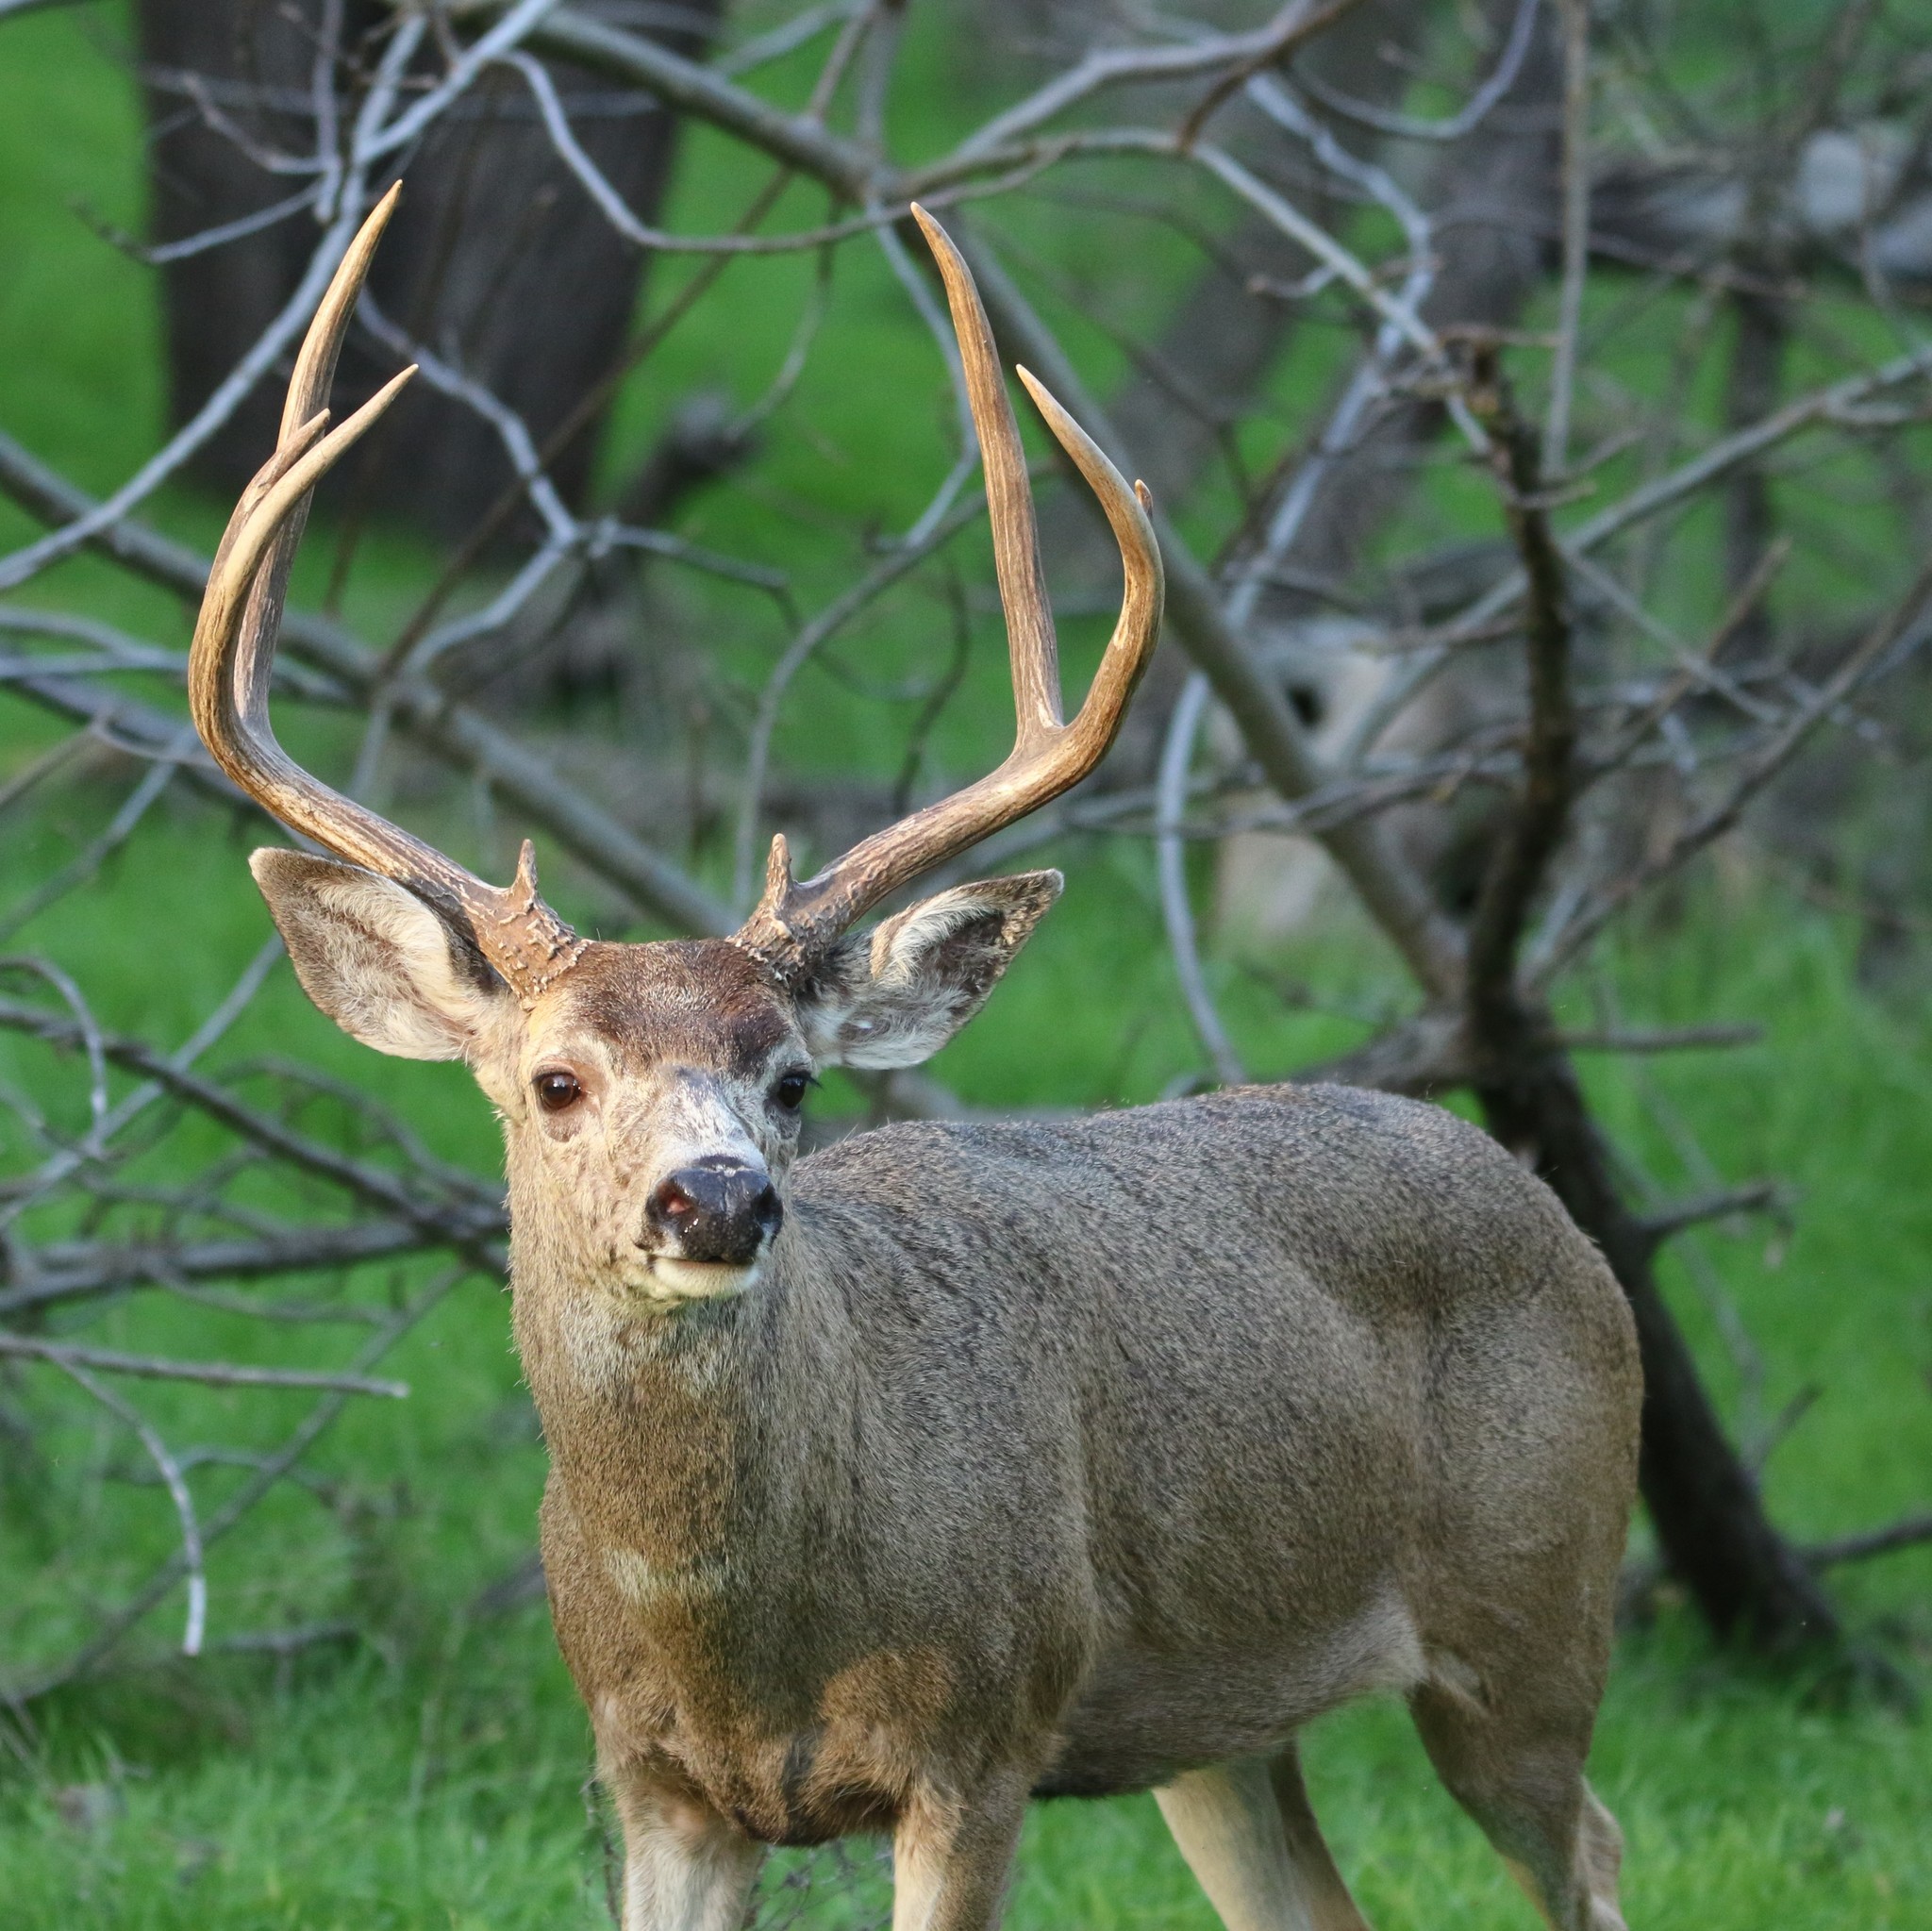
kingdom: Animalia
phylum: Chordata
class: Mammalia
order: Artiodactyla
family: Cervidae
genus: Odocoileus
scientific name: Odocoileus hemionus
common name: Mule deer
